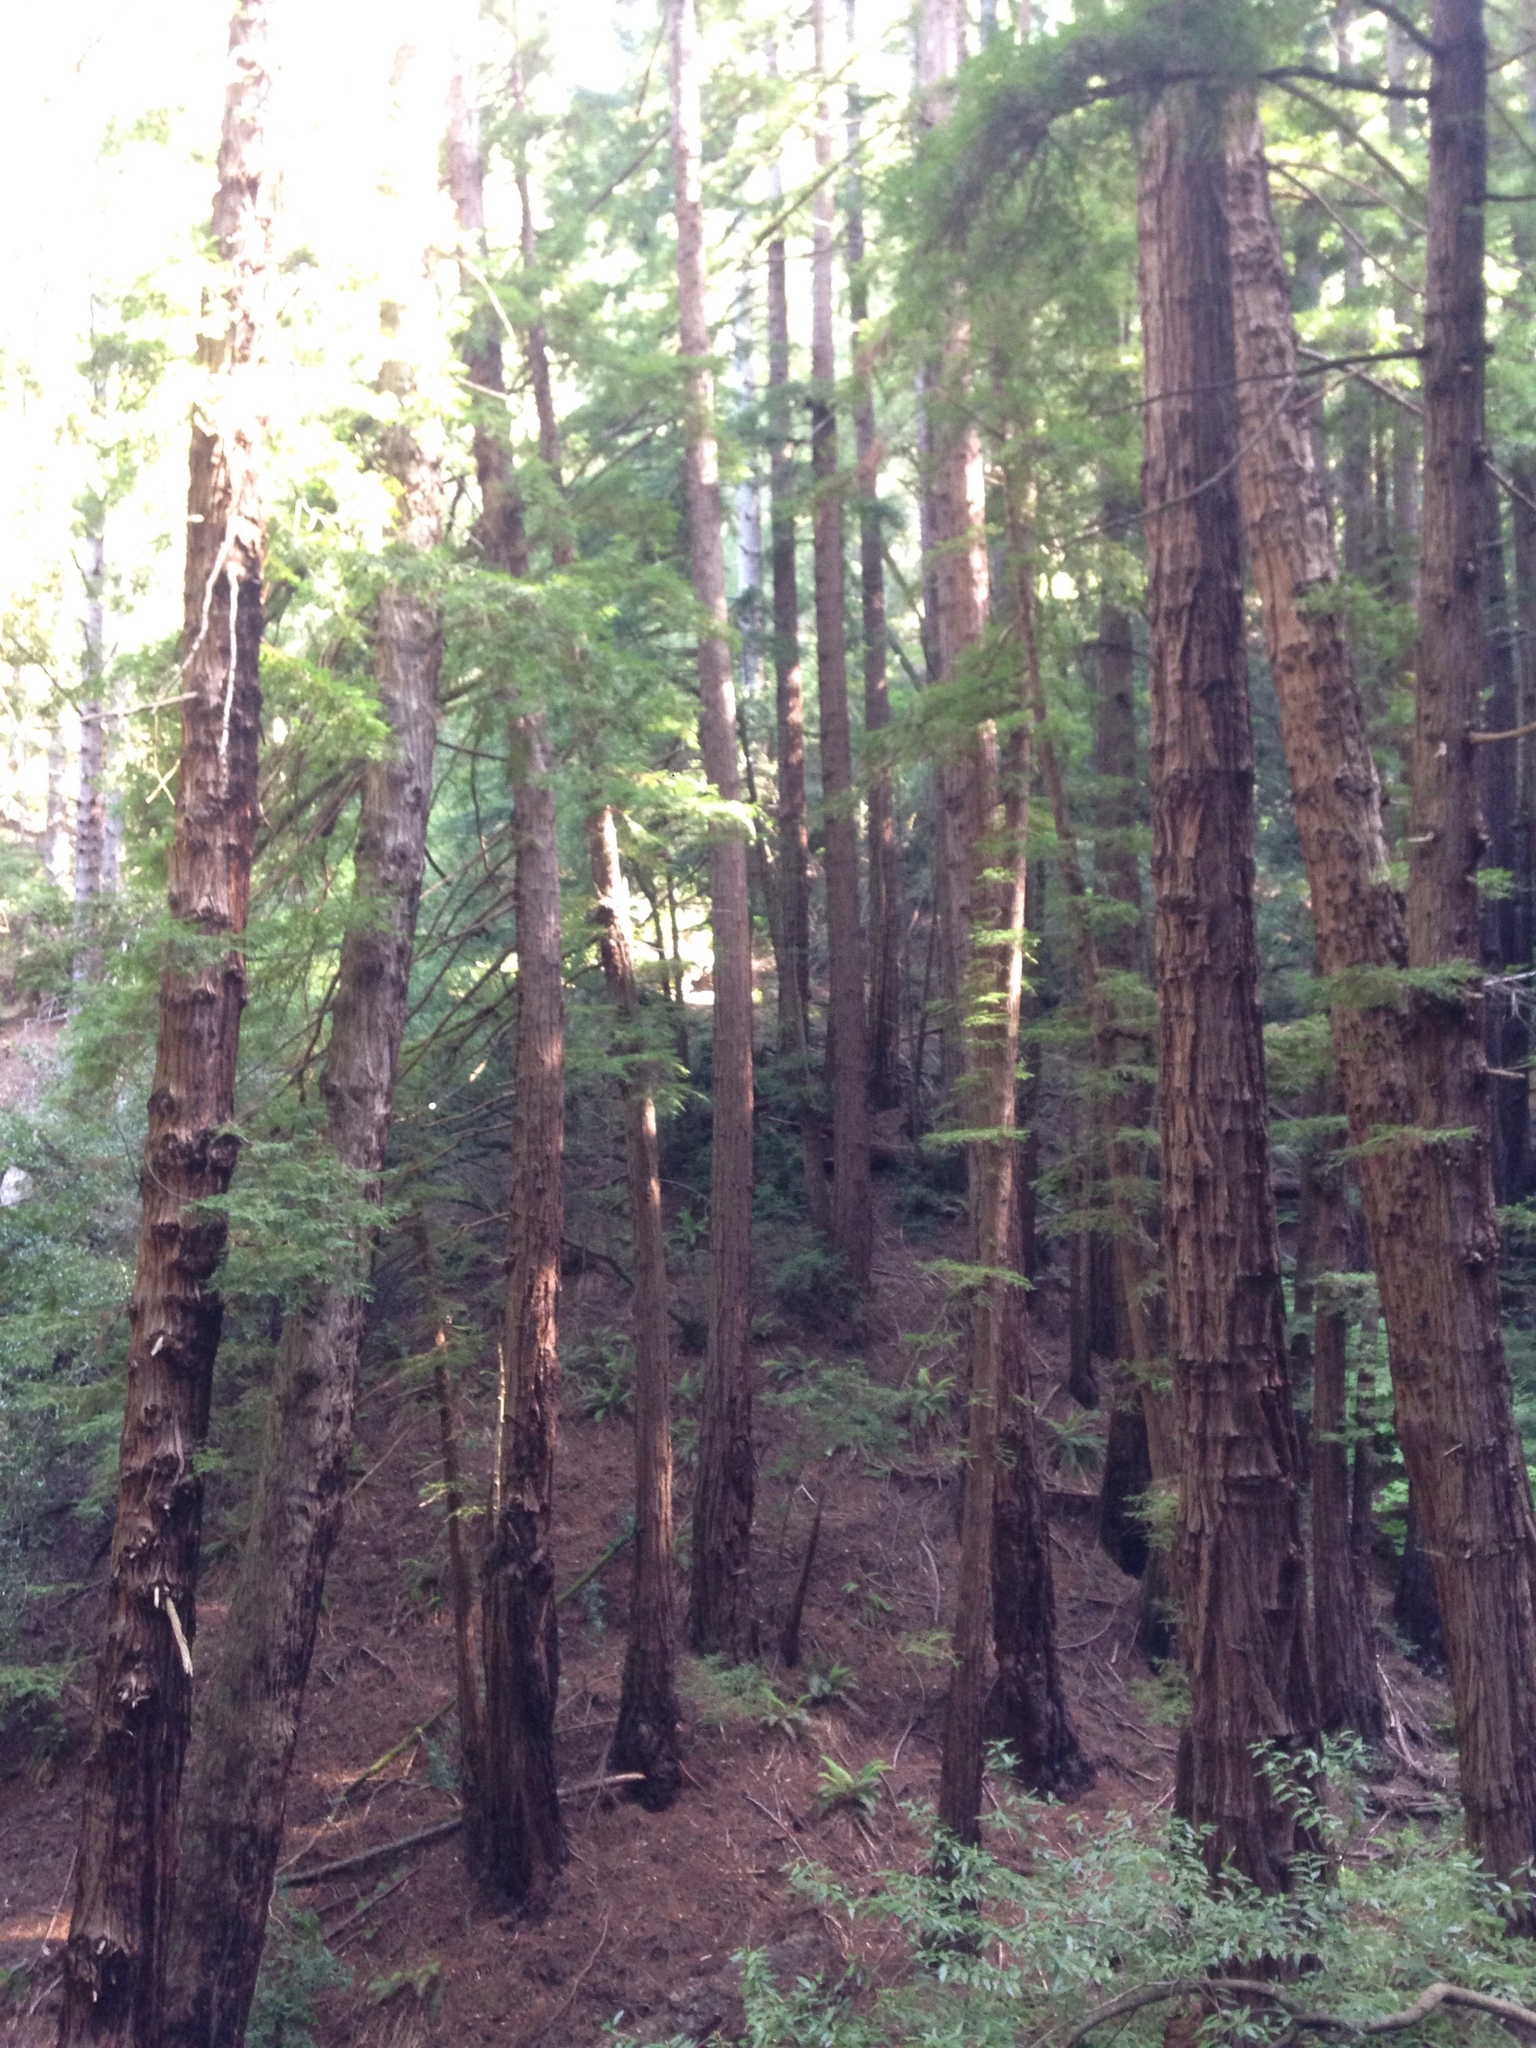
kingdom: Plantae
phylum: Tracheophyta
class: Pinopsida
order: Pinales
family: Cupressaceae
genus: Sequoia
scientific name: Sequoia sempervirens
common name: Coast redwood
